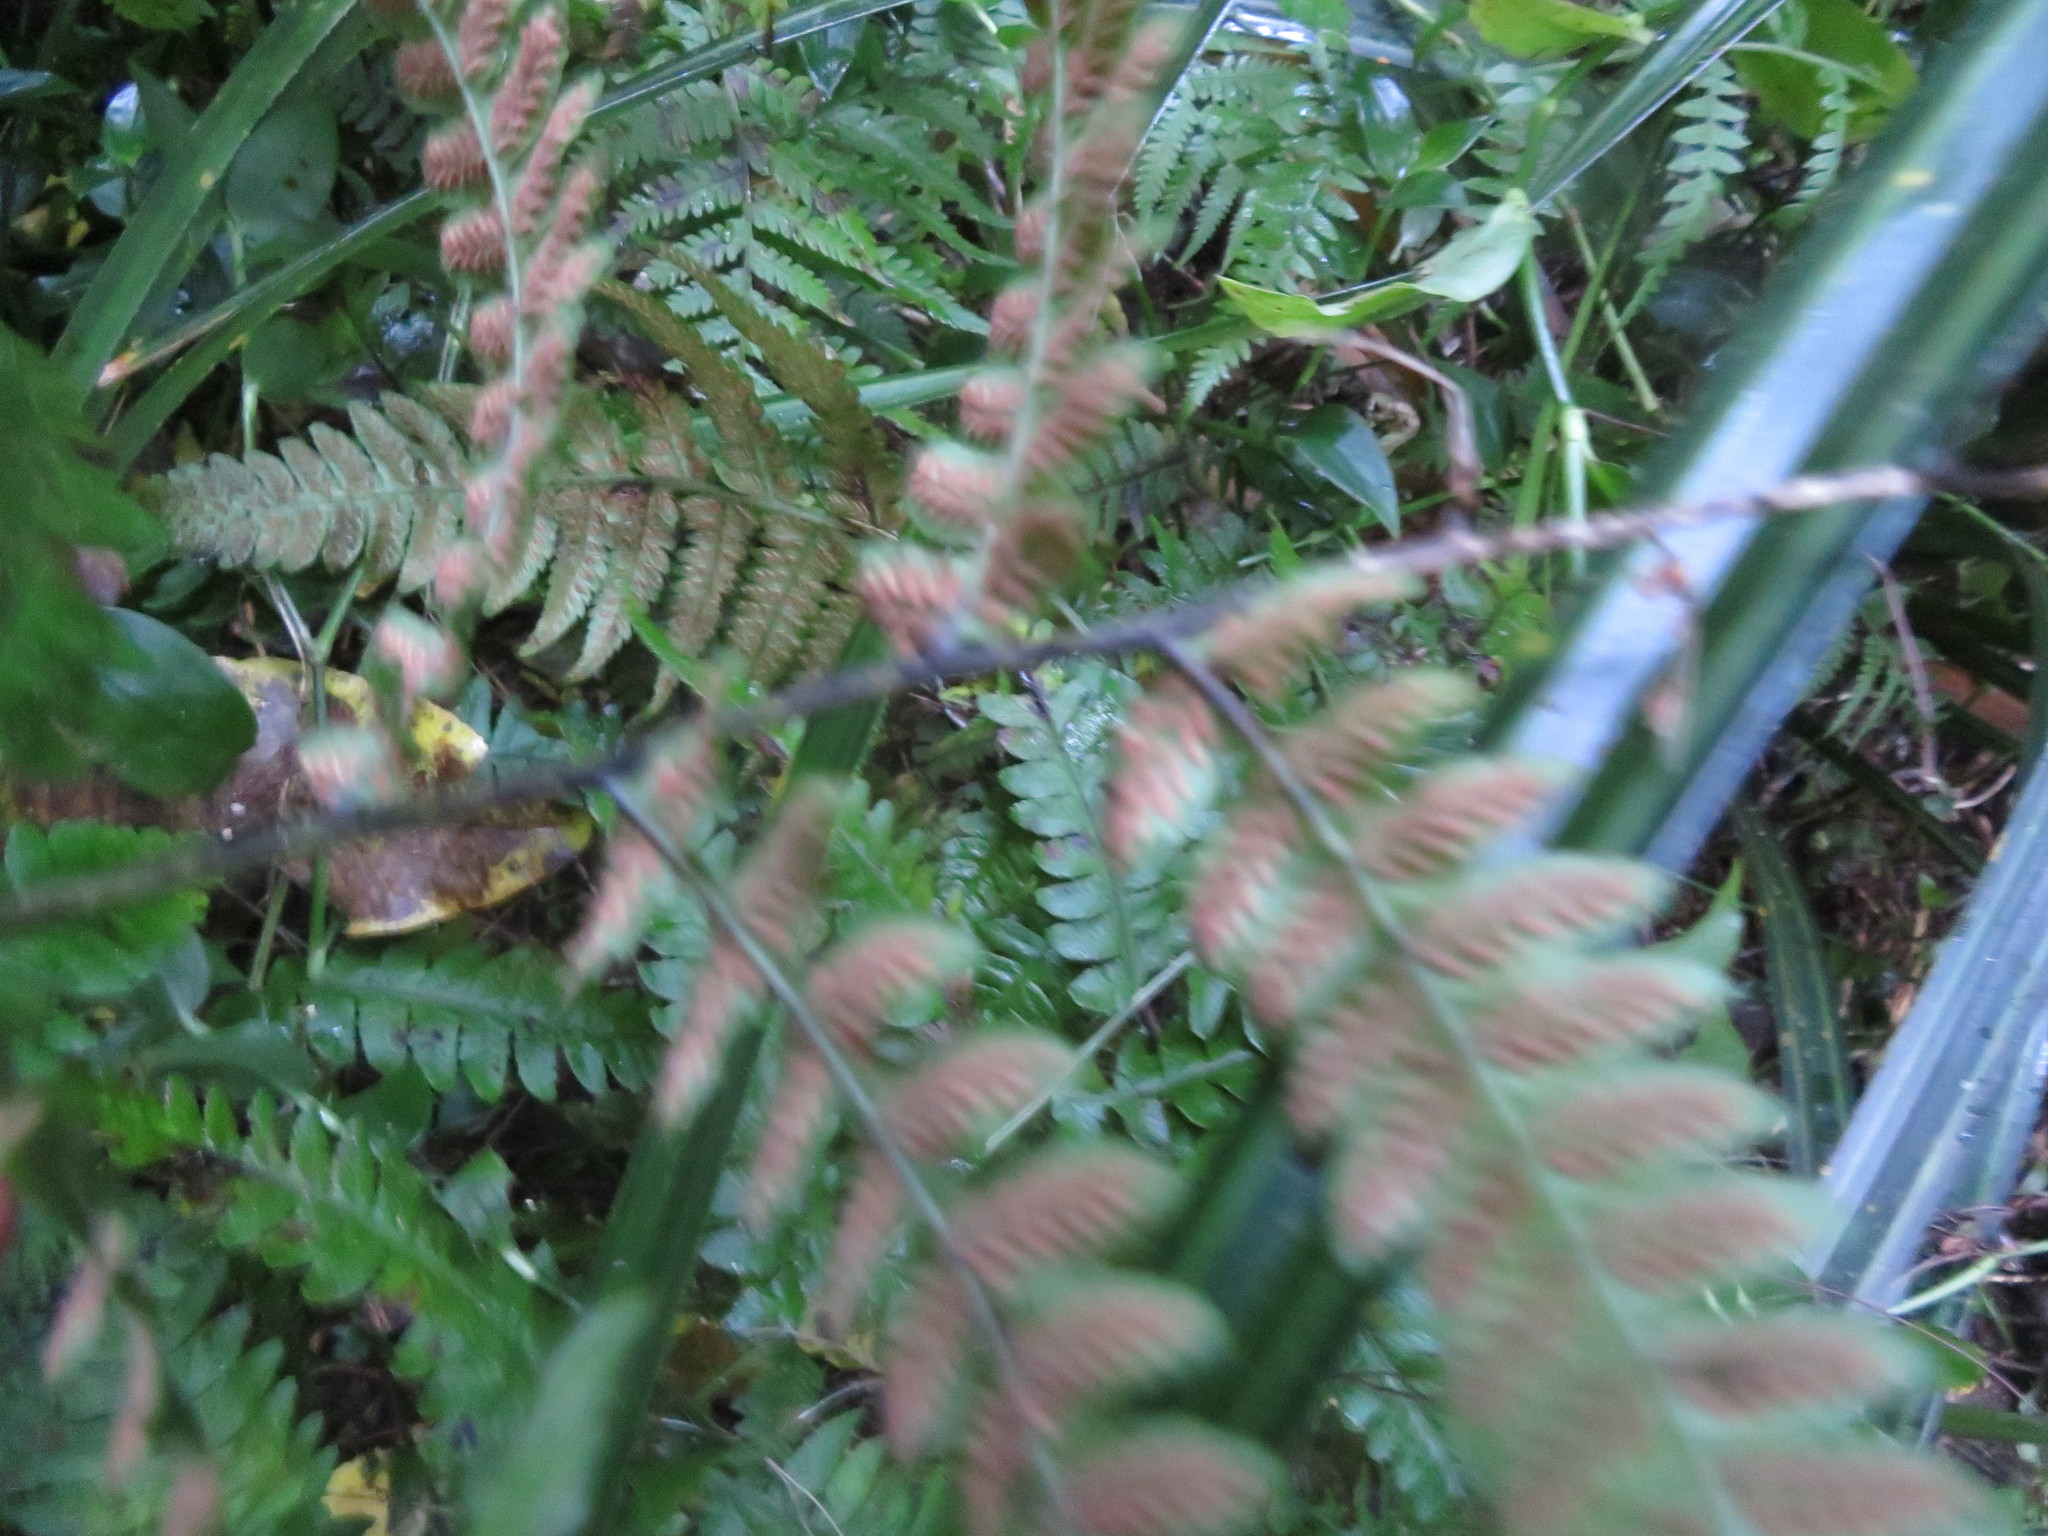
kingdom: Plantae
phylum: Tracheophyta
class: Polypodiopsida
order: Polypodiales
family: Athyriaceae
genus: Diplazium
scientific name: Diplazium congruum
